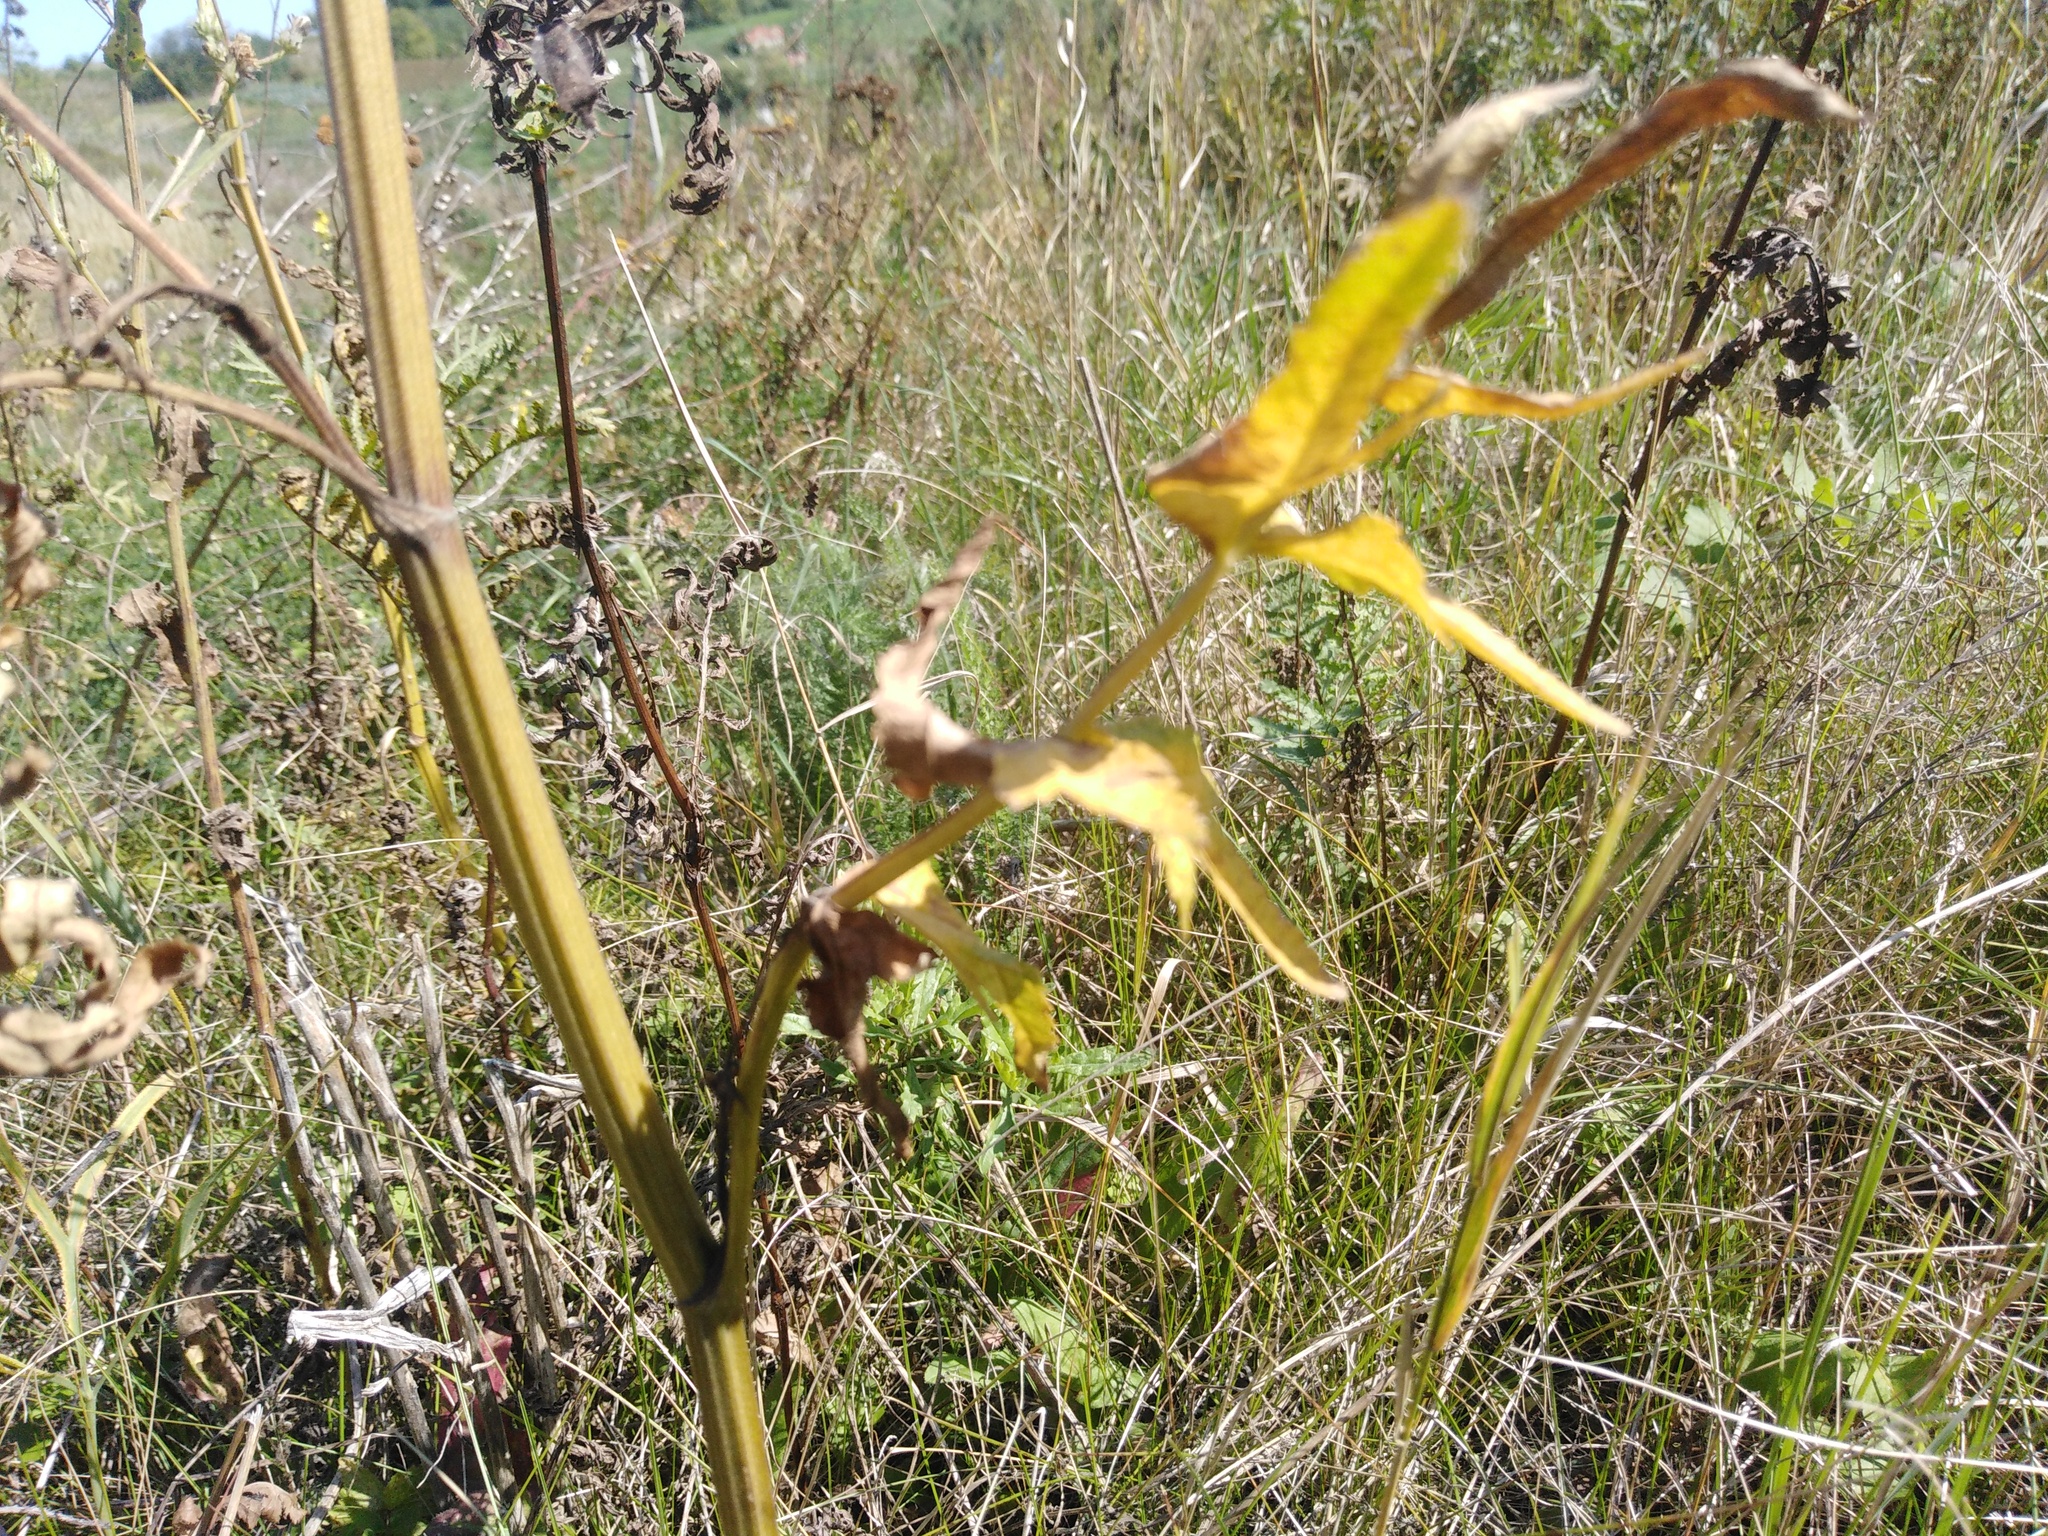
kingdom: Plantae
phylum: Tracheophyta
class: Magnoliopsida
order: Apiales
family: Apiaceae
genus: Pastinaca
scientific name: Pastinaca sativa
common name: Wild parsnip
